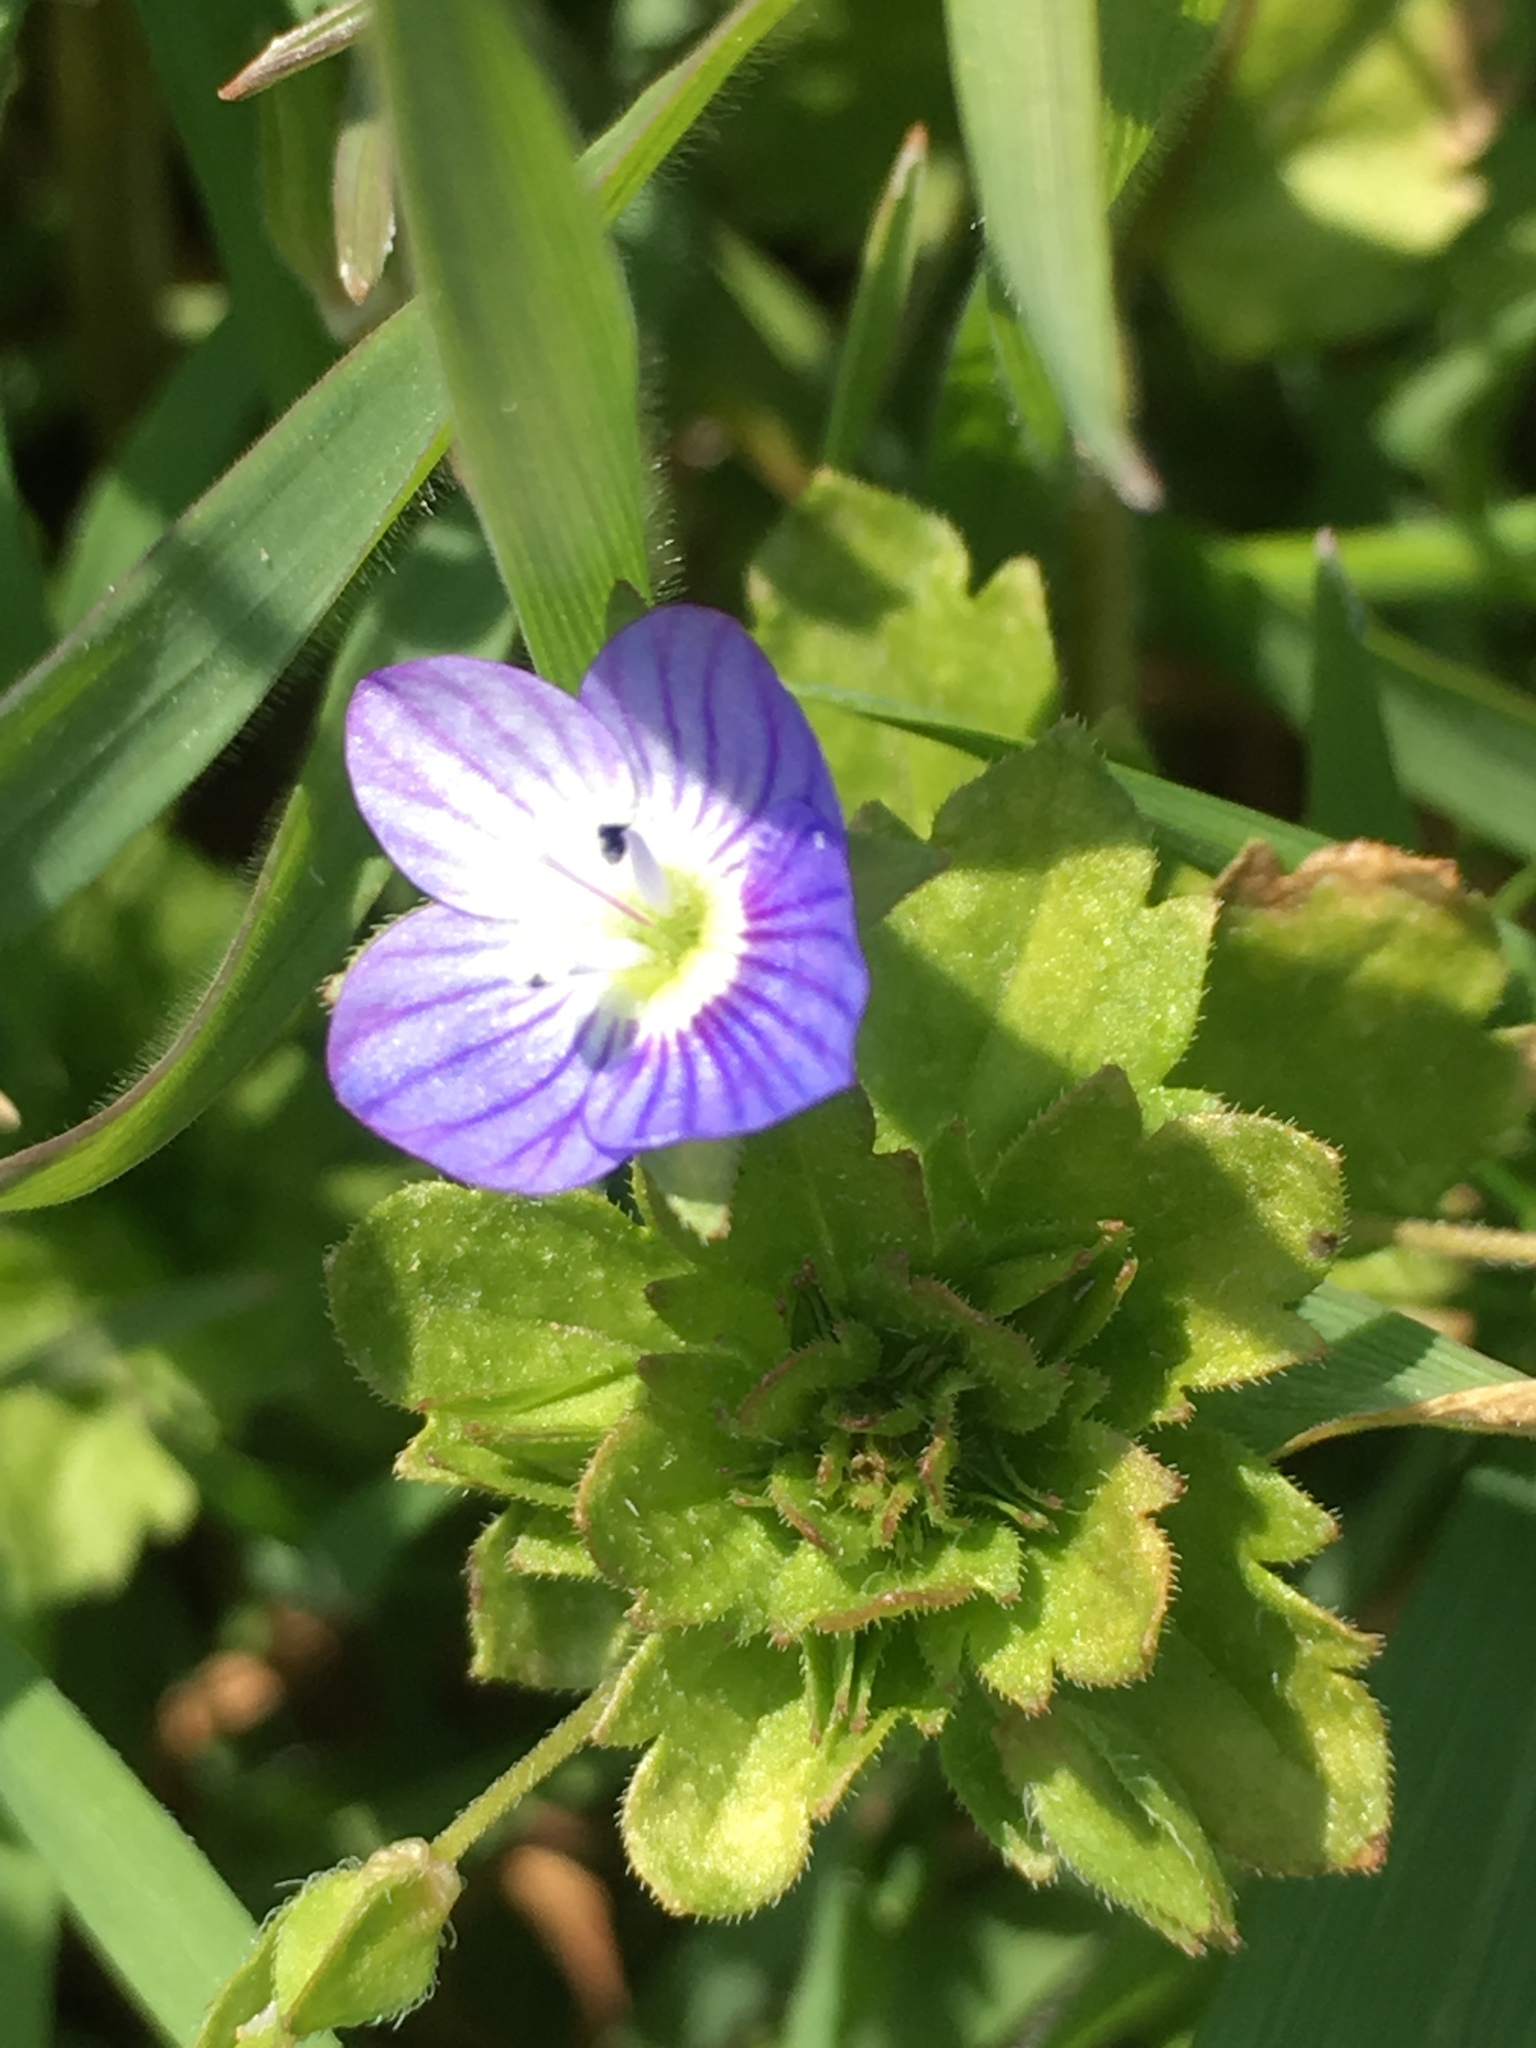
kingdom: Plantae
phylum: Tracheophyta
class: Magnoliopsida
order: Lamiales
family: Plantaginaceae
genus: Veronica
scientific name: Veronica persica
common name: Common field-speedwell
